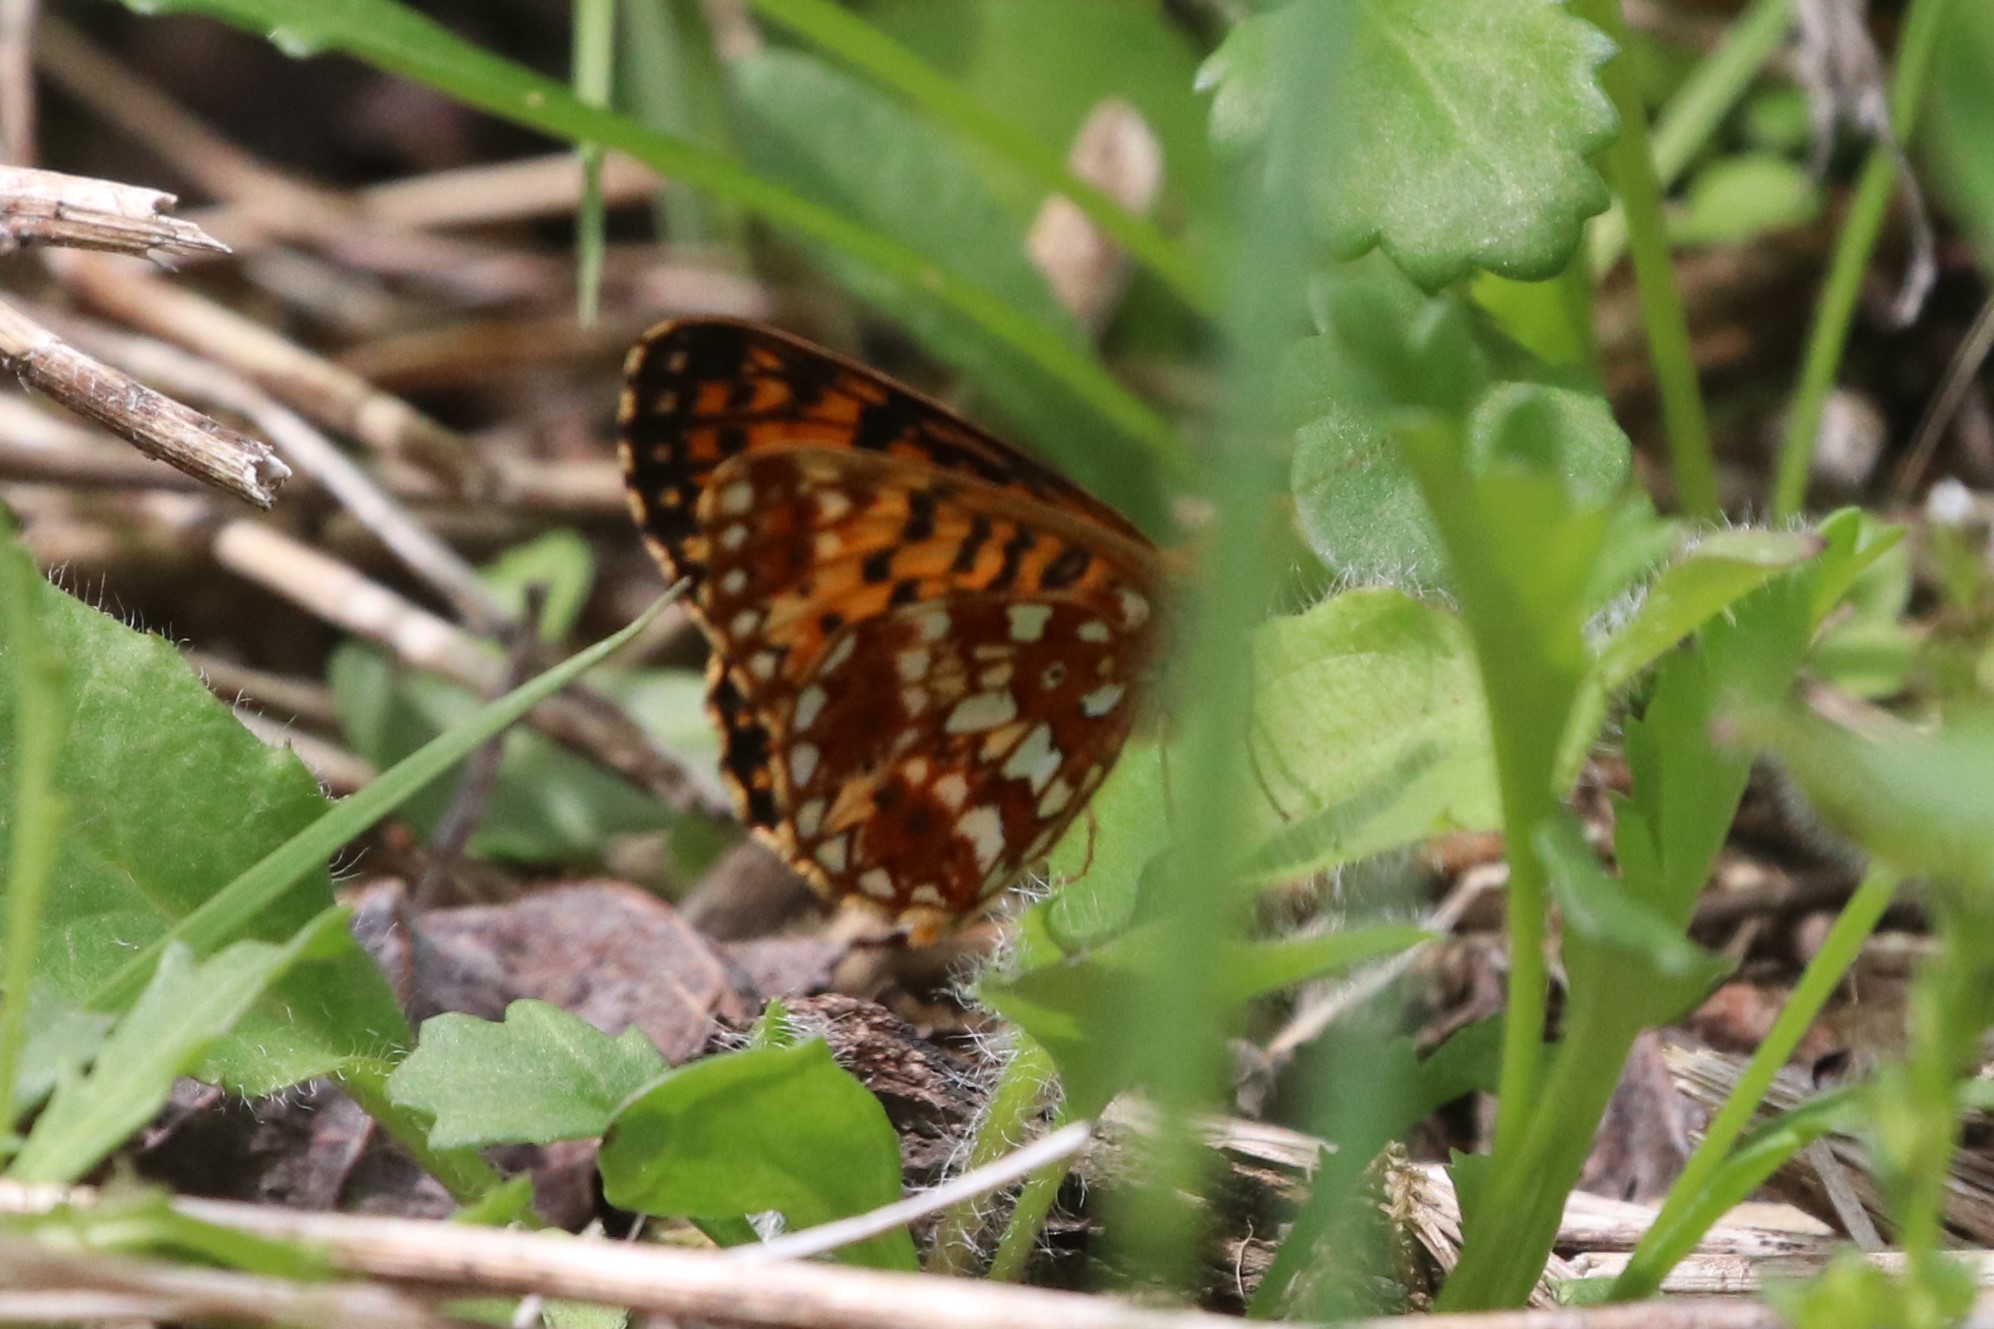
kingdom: Animalia
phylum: Arthropoda
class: Insecta
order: Lepidoptera
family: Nymphalidae
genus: Boloria
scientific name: Boloria
